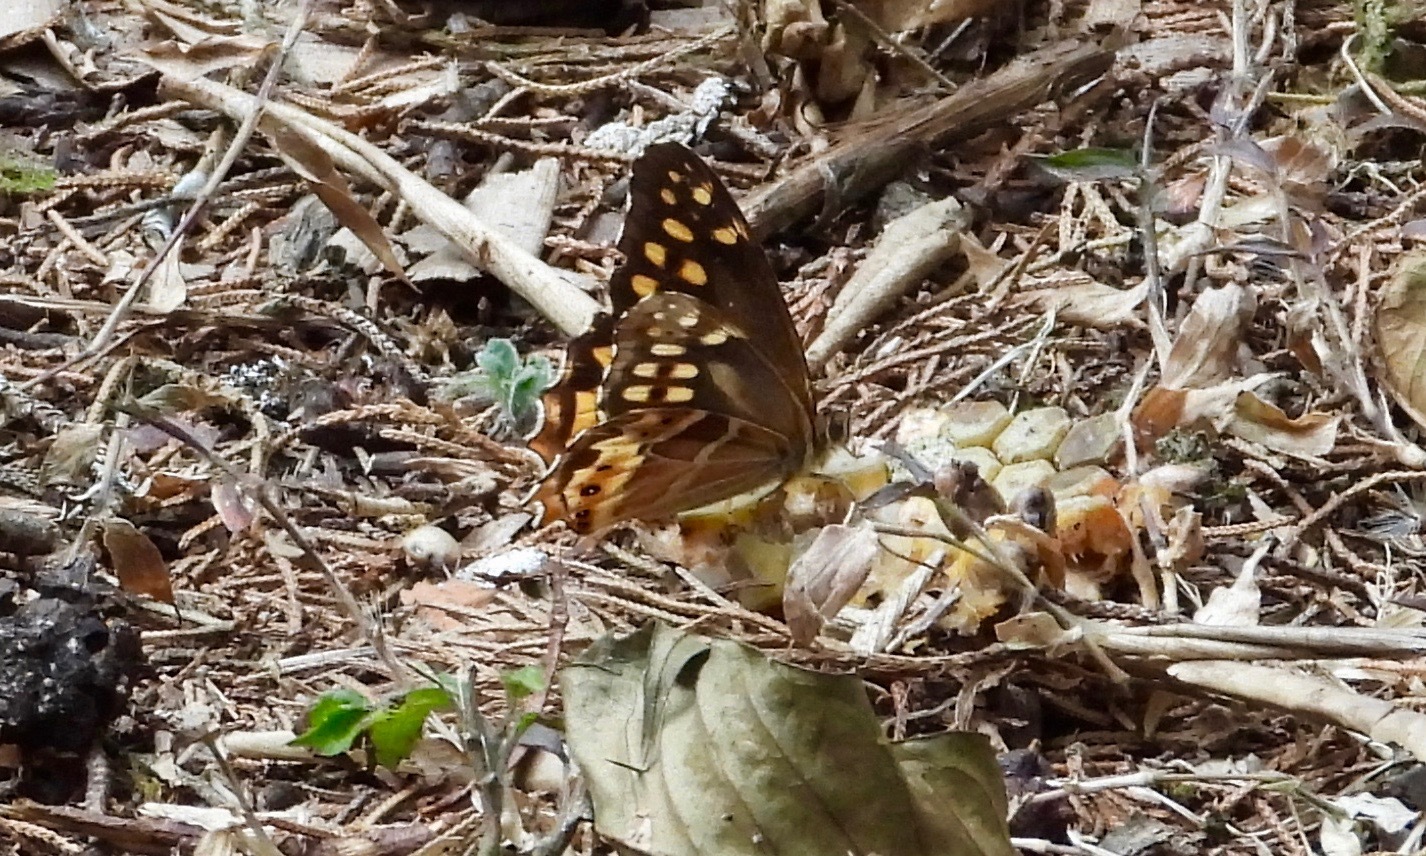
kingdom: Animalia
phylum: Arthropoda
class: Insecta
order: Lepidoptera
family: Nymphalidae
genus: Oxeoschistus
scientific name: Oxeoschistus hilara
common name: Dot-banded satyr
